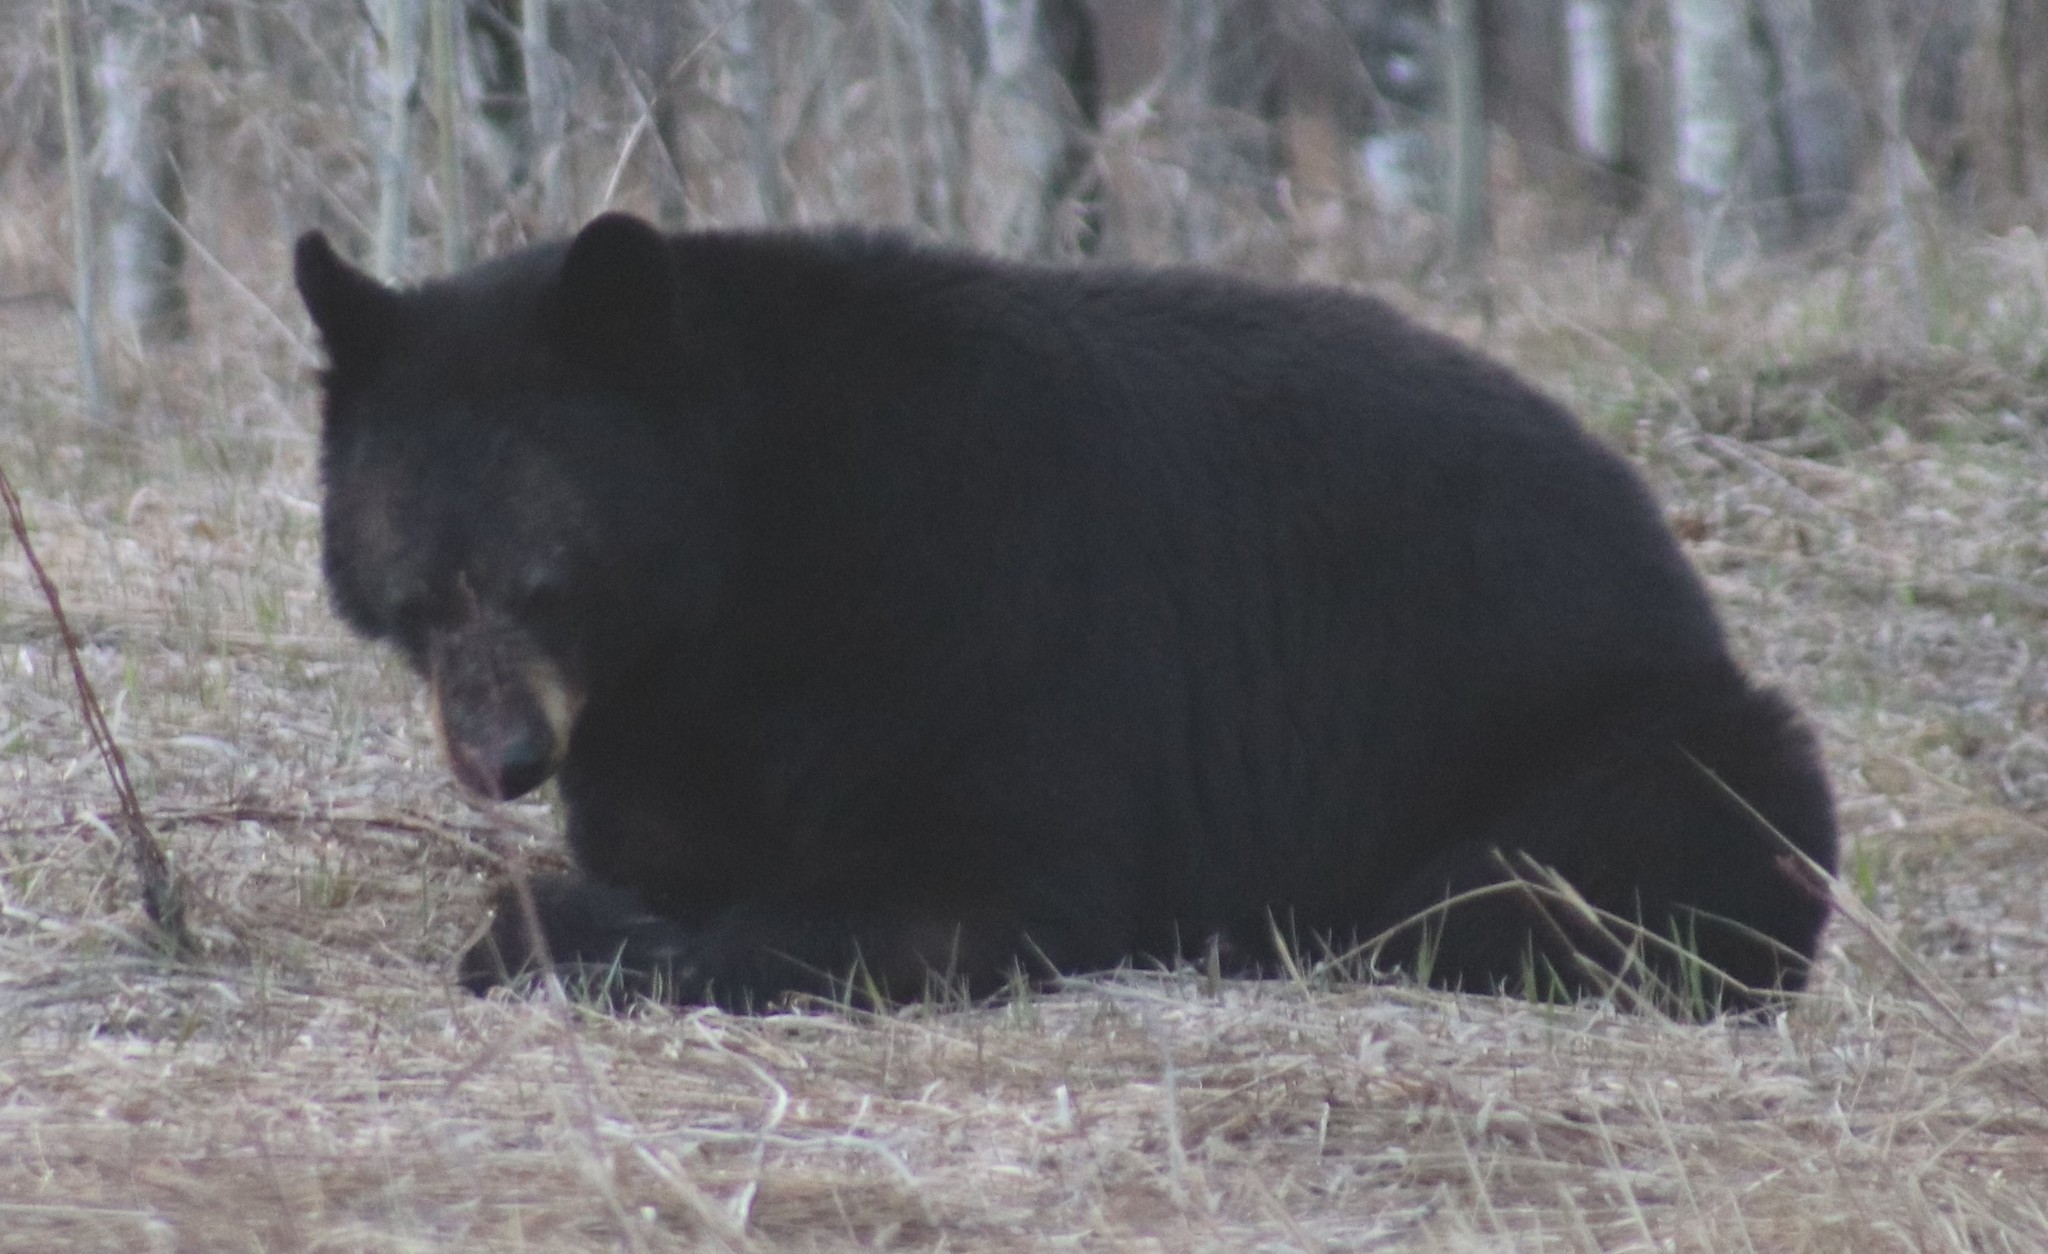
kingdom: Animalia
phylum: Chordata
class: Mammalia
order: Carnivora
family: Ursidae
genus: Ursus
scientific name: Ursus americanus
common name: American black bear
